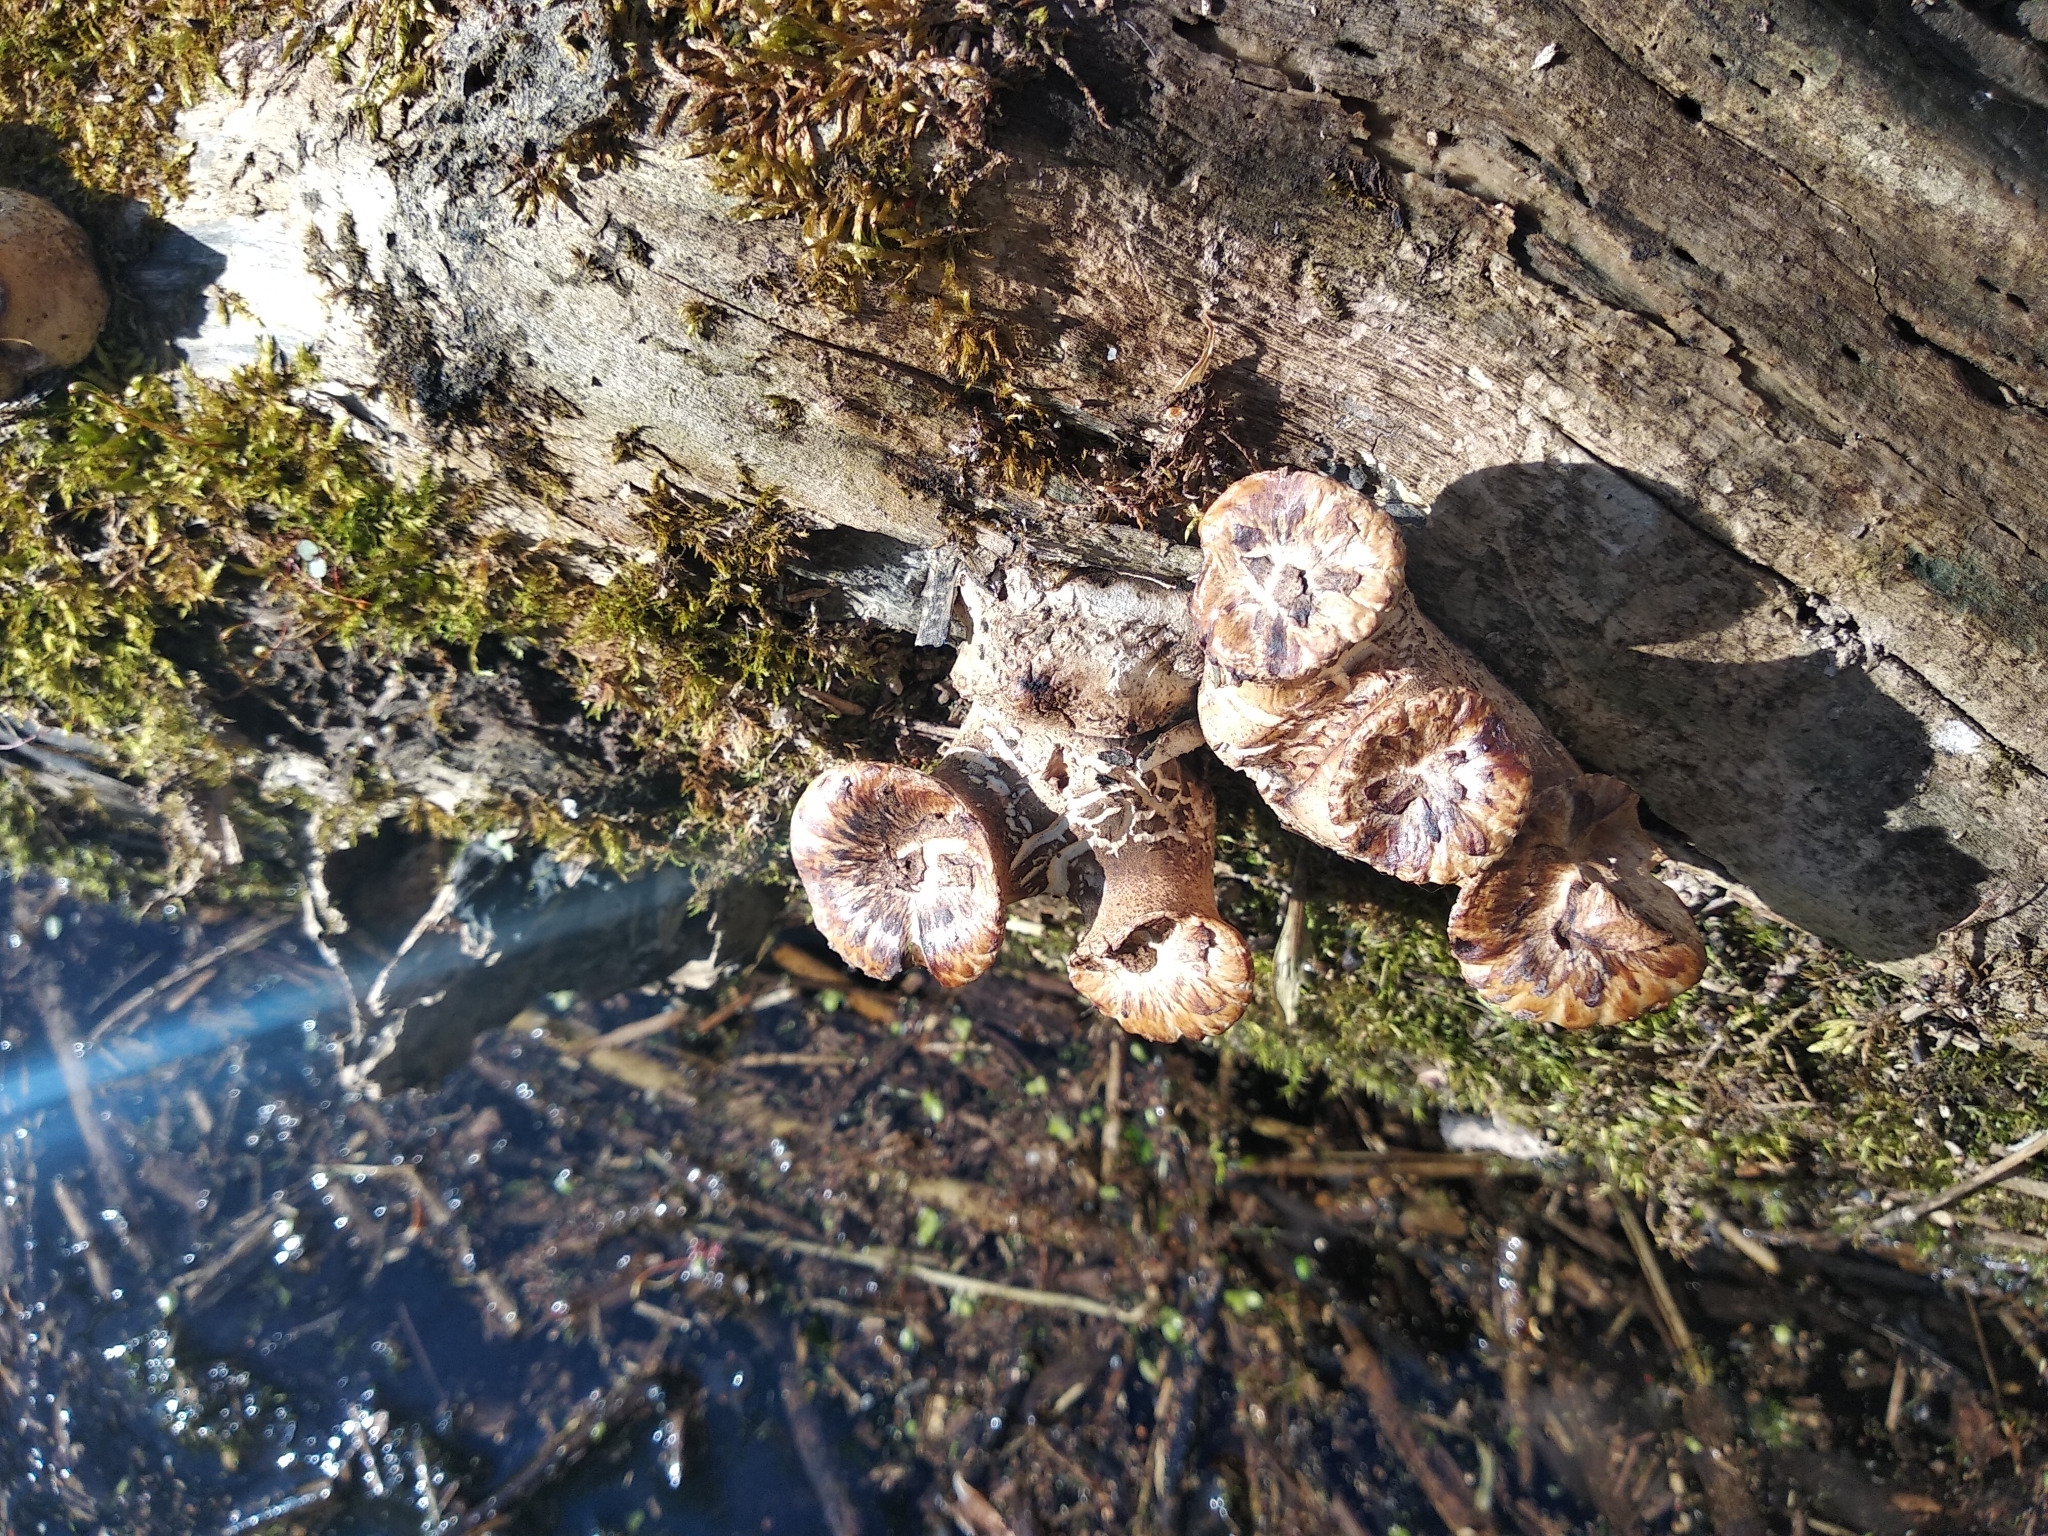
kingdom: Fungi
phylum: Basidiomycota
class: Agaricomycetes
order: Polyporales
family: Polyporaceae
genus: Cerioporus
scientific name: Cerioporus squamosus
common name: Dryad's saddle
